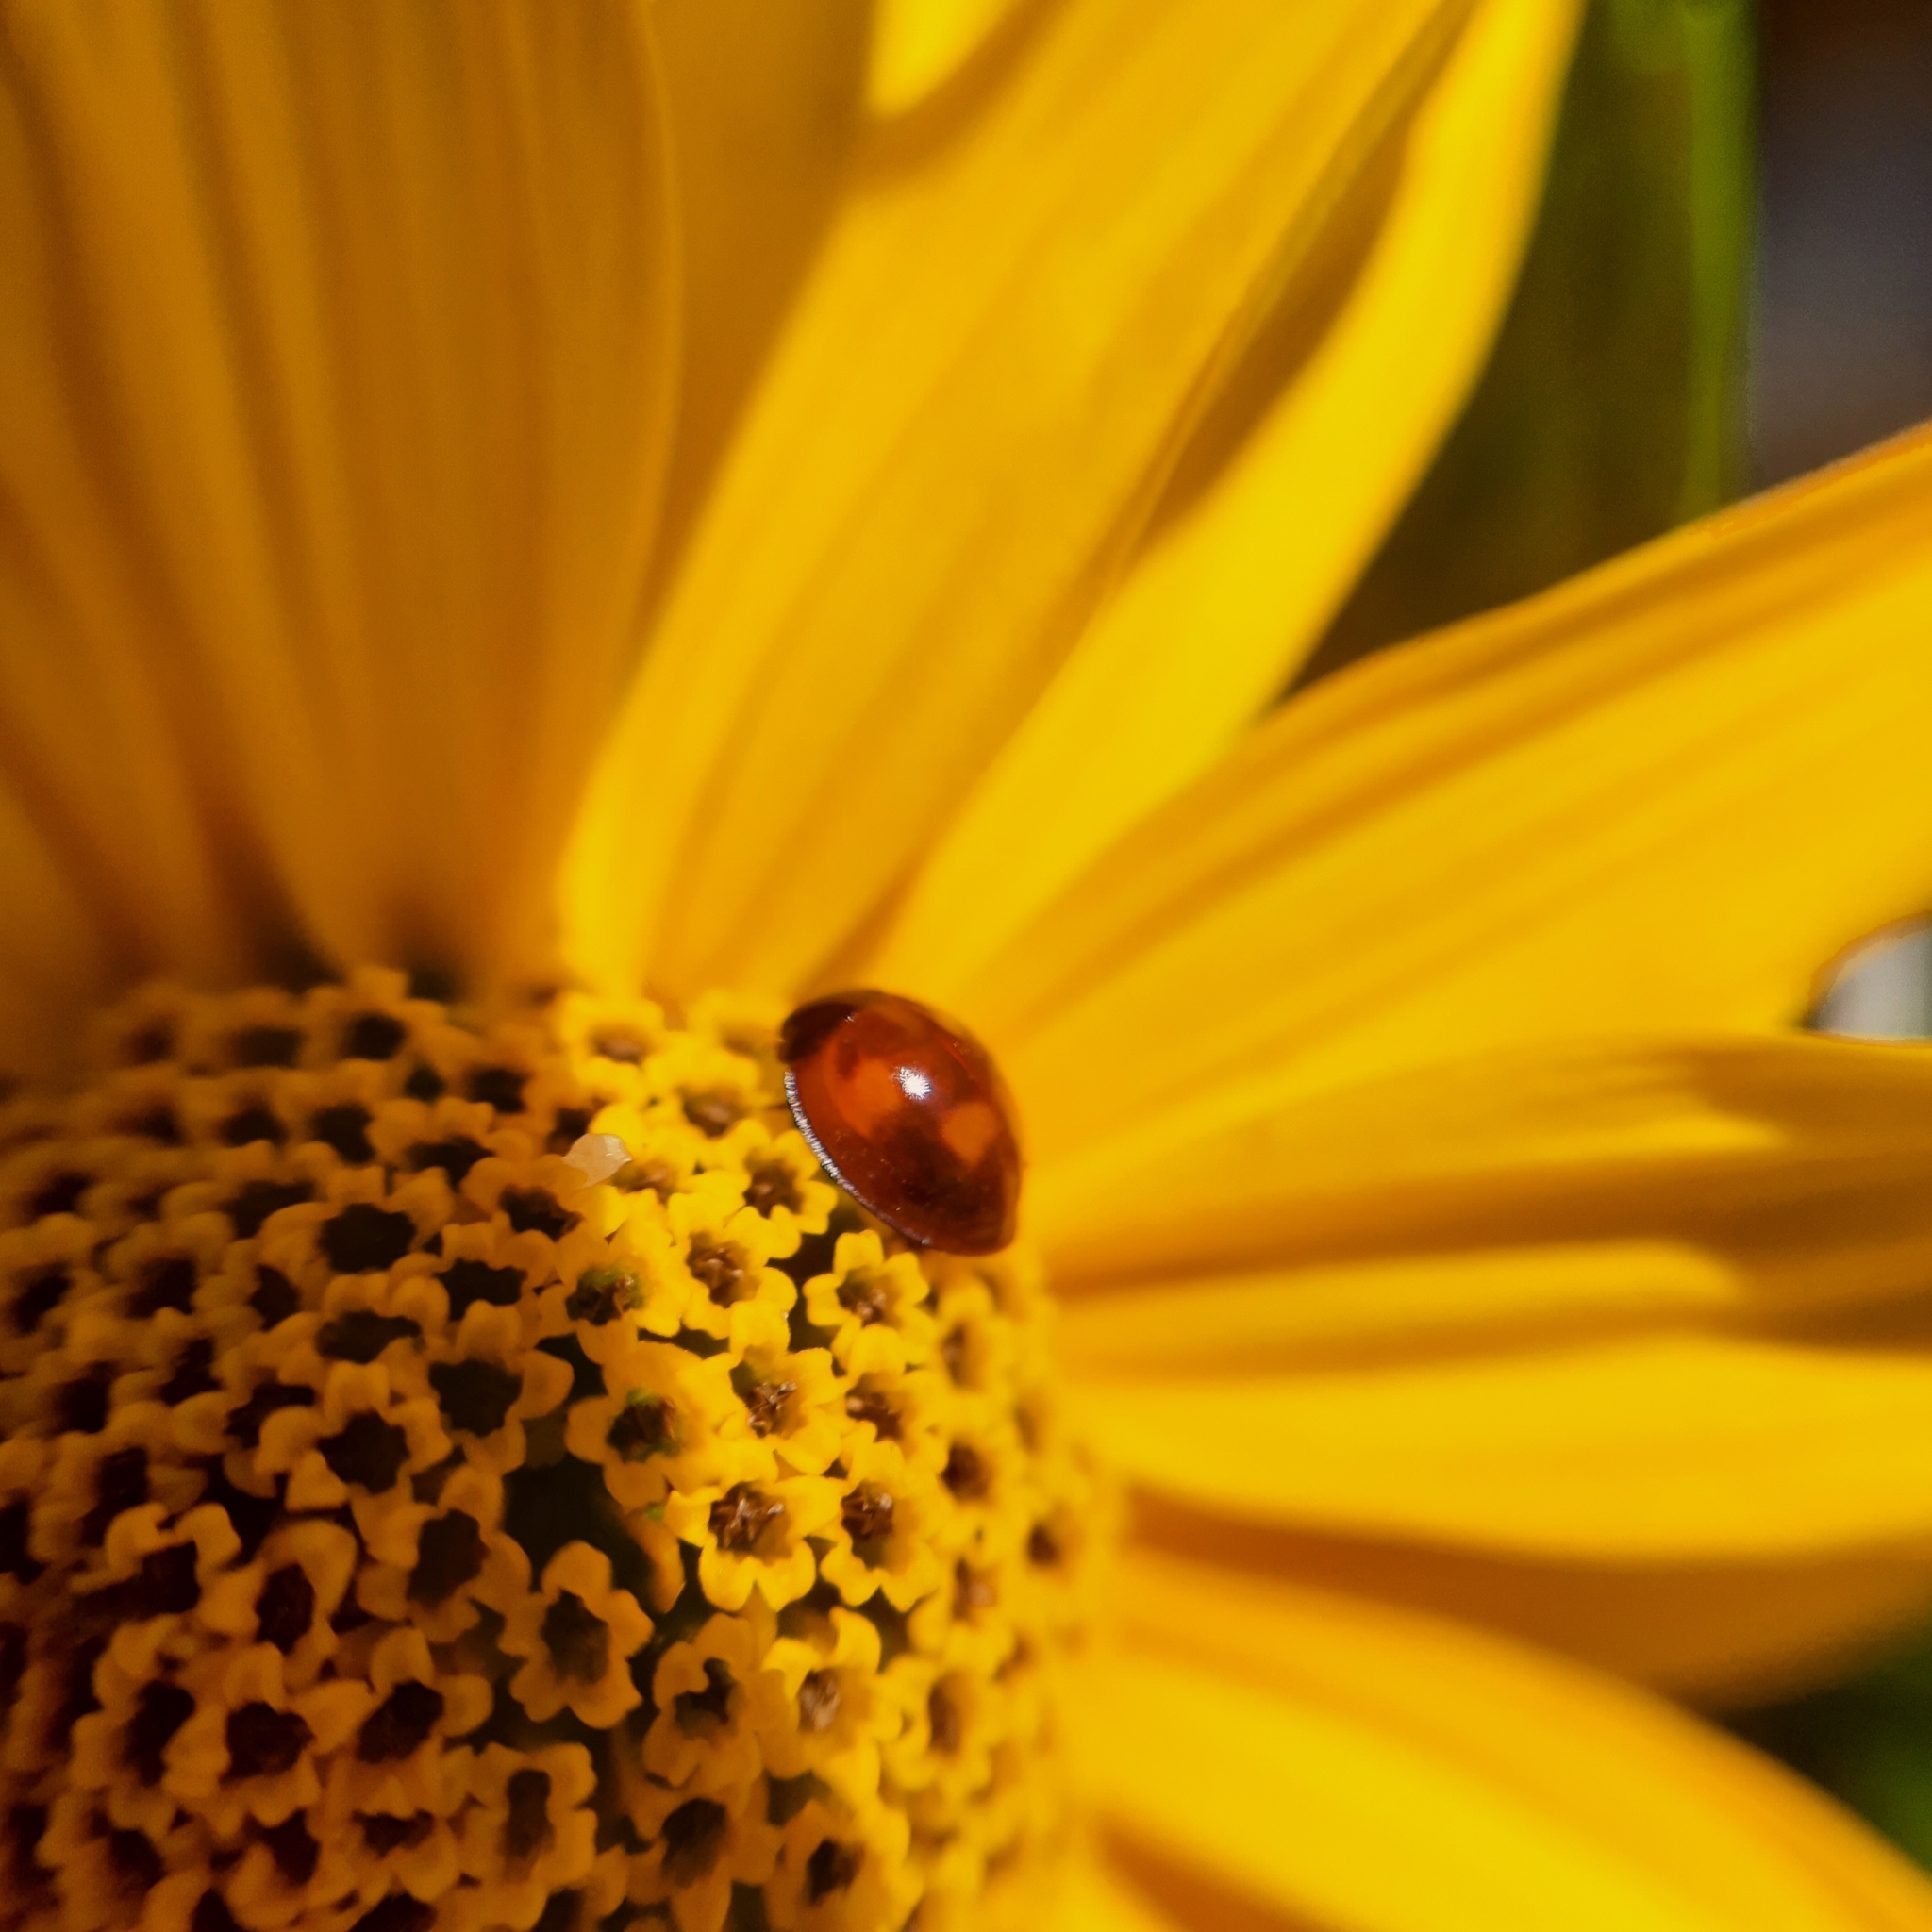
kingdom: Animalia
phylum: Arthropoda
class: Insecta
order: Coleoptera
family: Coccinellidae
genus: Brumus
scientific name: Brumus quadripustulatus
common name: Ladybird beetle
